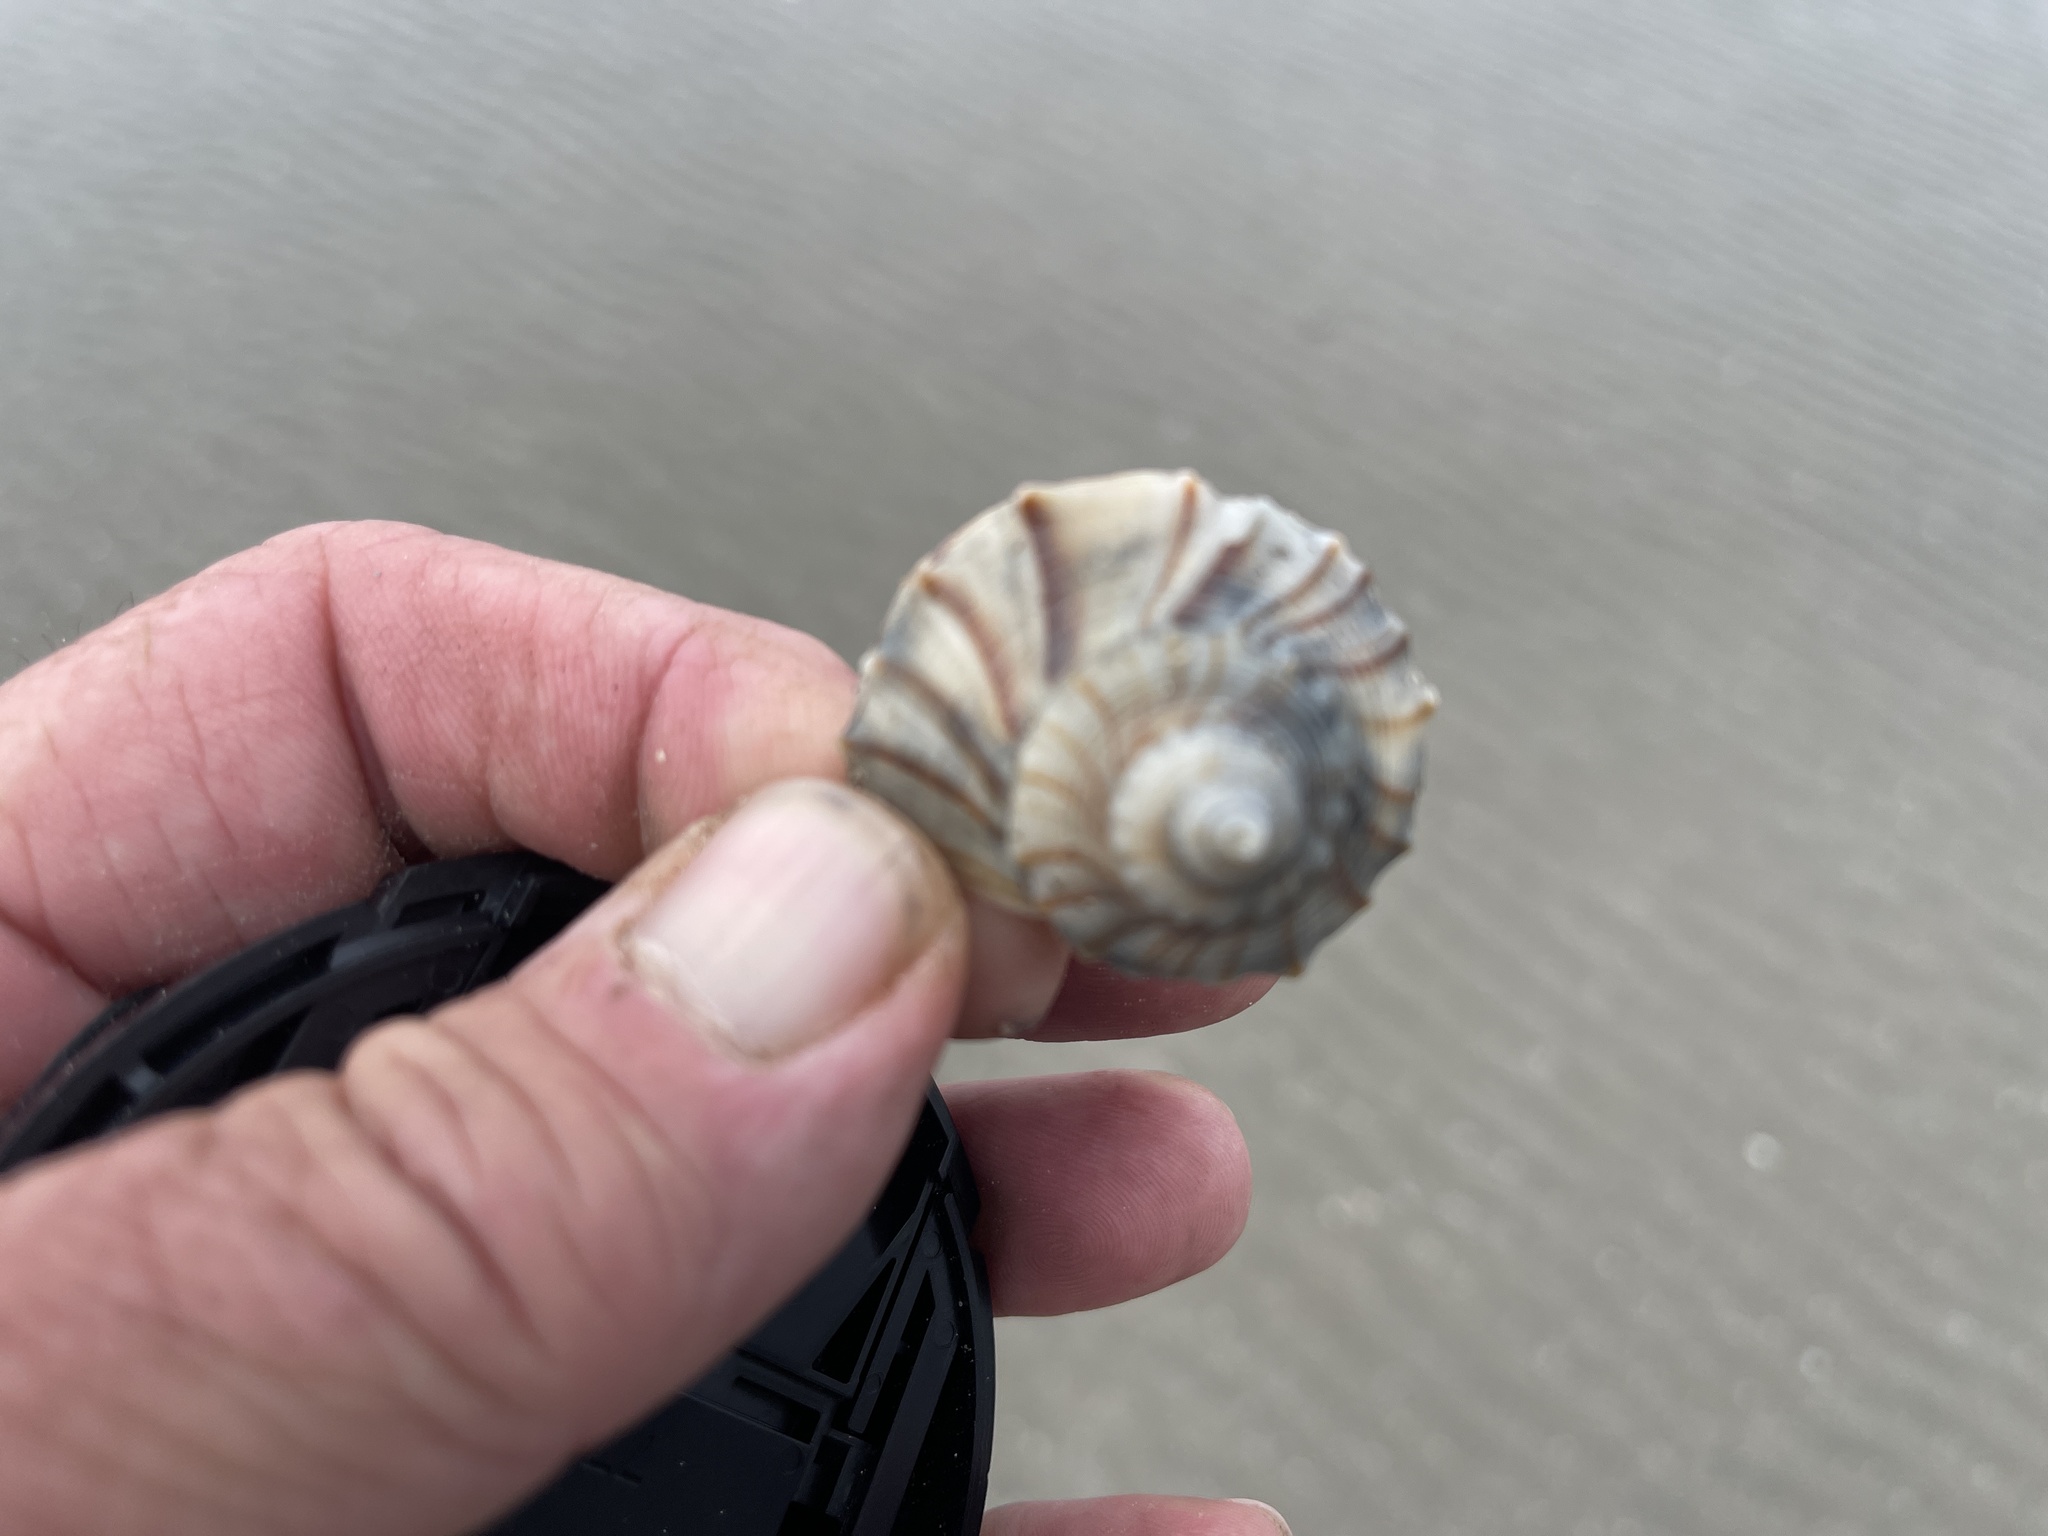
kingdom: Animalia
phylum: Mollusca
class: Gastropoda
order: Neogastropoda
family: Busyconidae
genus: Sinistrofulgur
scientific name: Sinistrofulgur pulleyi
